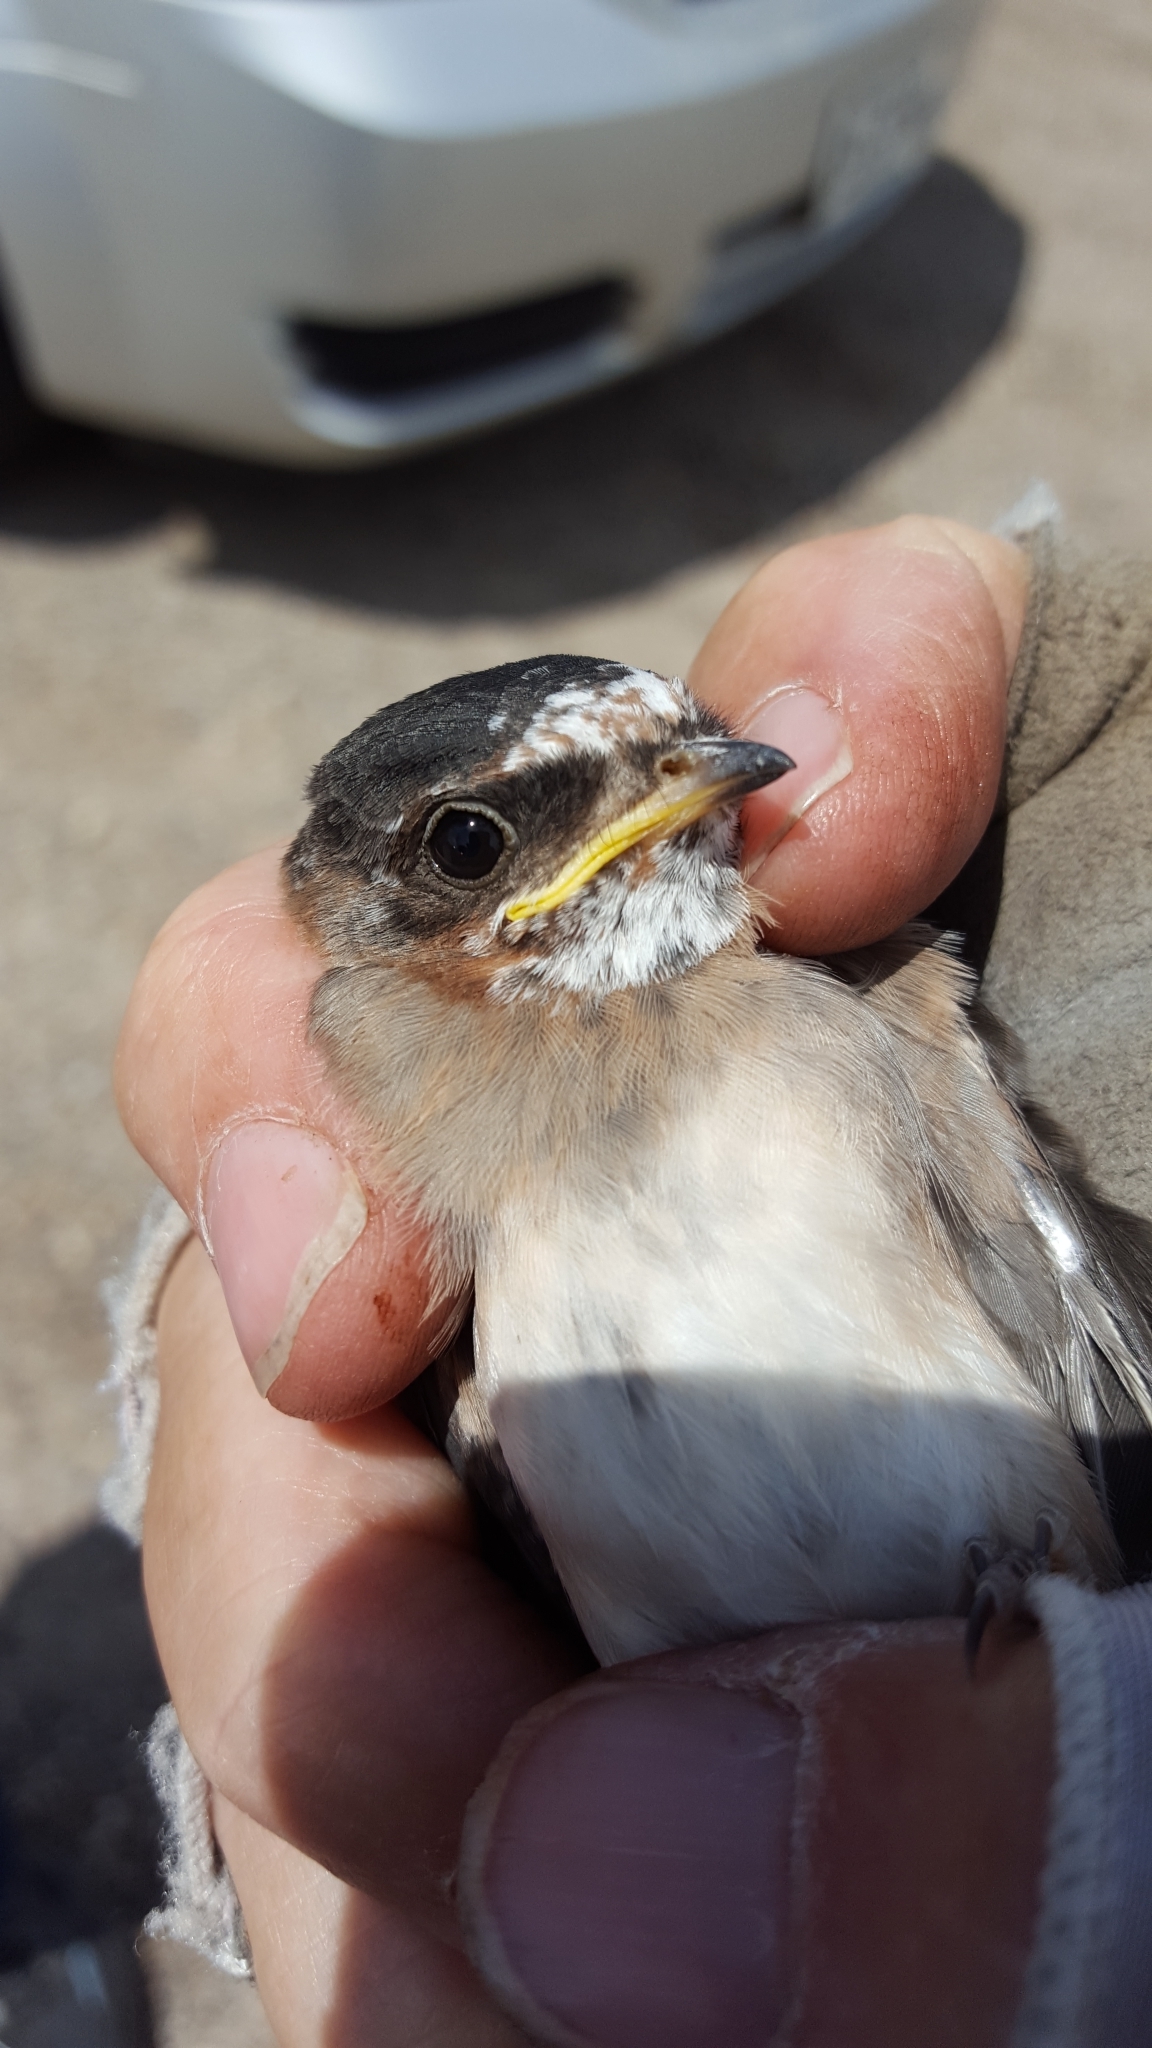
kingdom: Animalia
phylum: Chordata
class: Aves
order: Passeriformes
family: Hirundinidae
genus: Petrochelidon
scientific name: Petrochelidon pyrrhonota
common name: American cliff swallow
